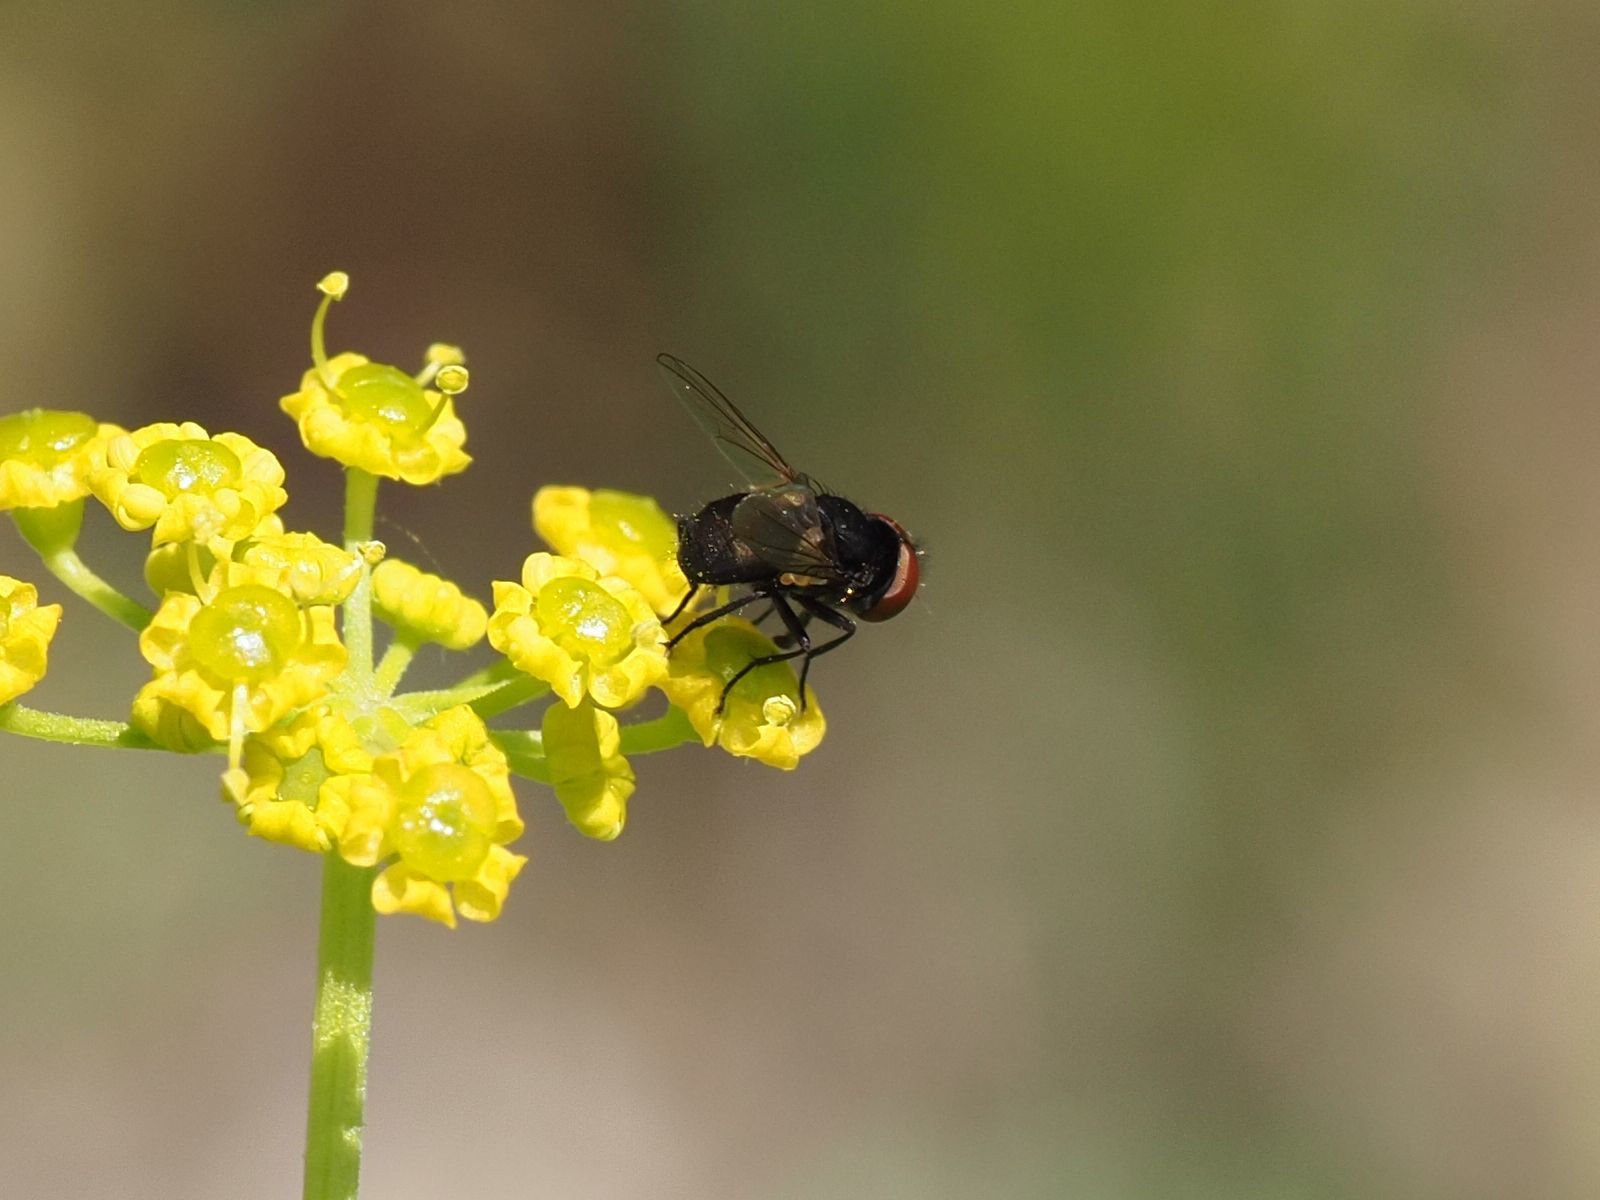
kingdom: Animalia
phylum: Arthropoda
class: Insecta
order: Diptera
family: Tachinidae
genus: Phasia
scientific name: Phasia barbifrons
